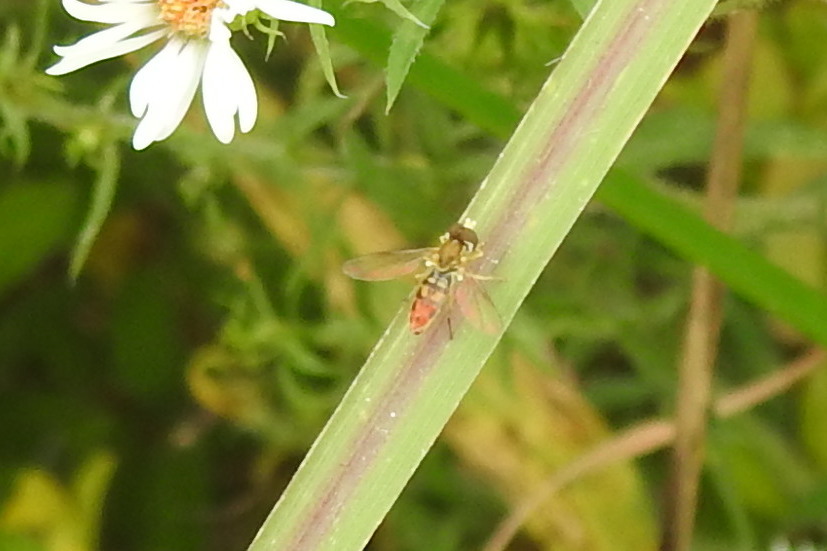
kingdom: Animalia
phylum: Arthropoda
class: Insecta
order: Diptera
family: Syrphidae
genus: Toxomerus
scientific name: Toxomerus marginatus
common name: Syrphid fly
